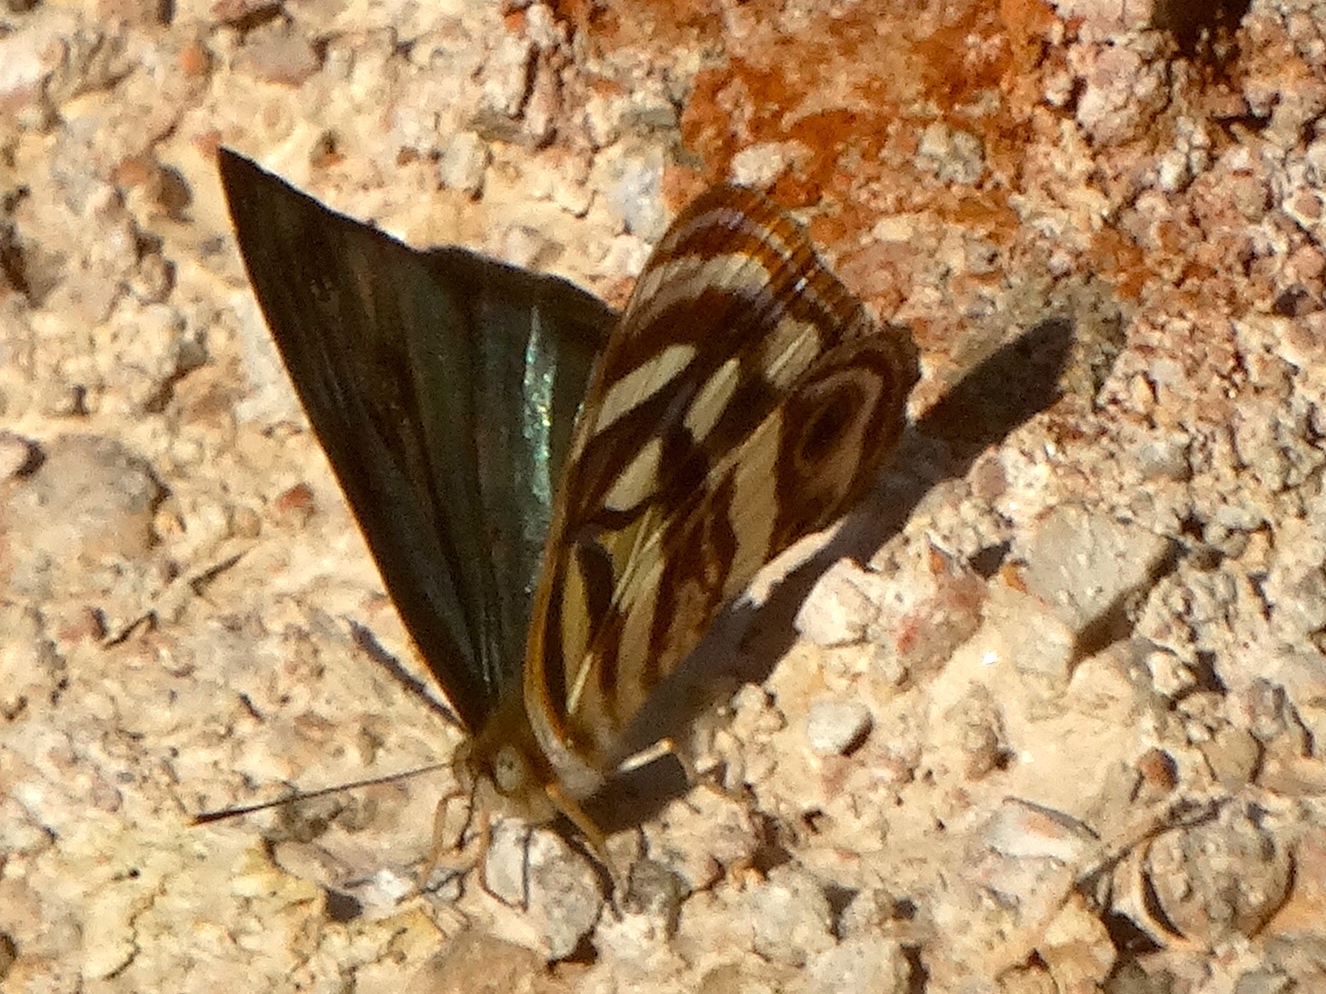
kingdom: Animalia
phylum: Arthropoda
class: Insecta
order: Lepidoptera
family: Nymphalidae
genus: Dynamine
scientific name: Dynamine mylitta
